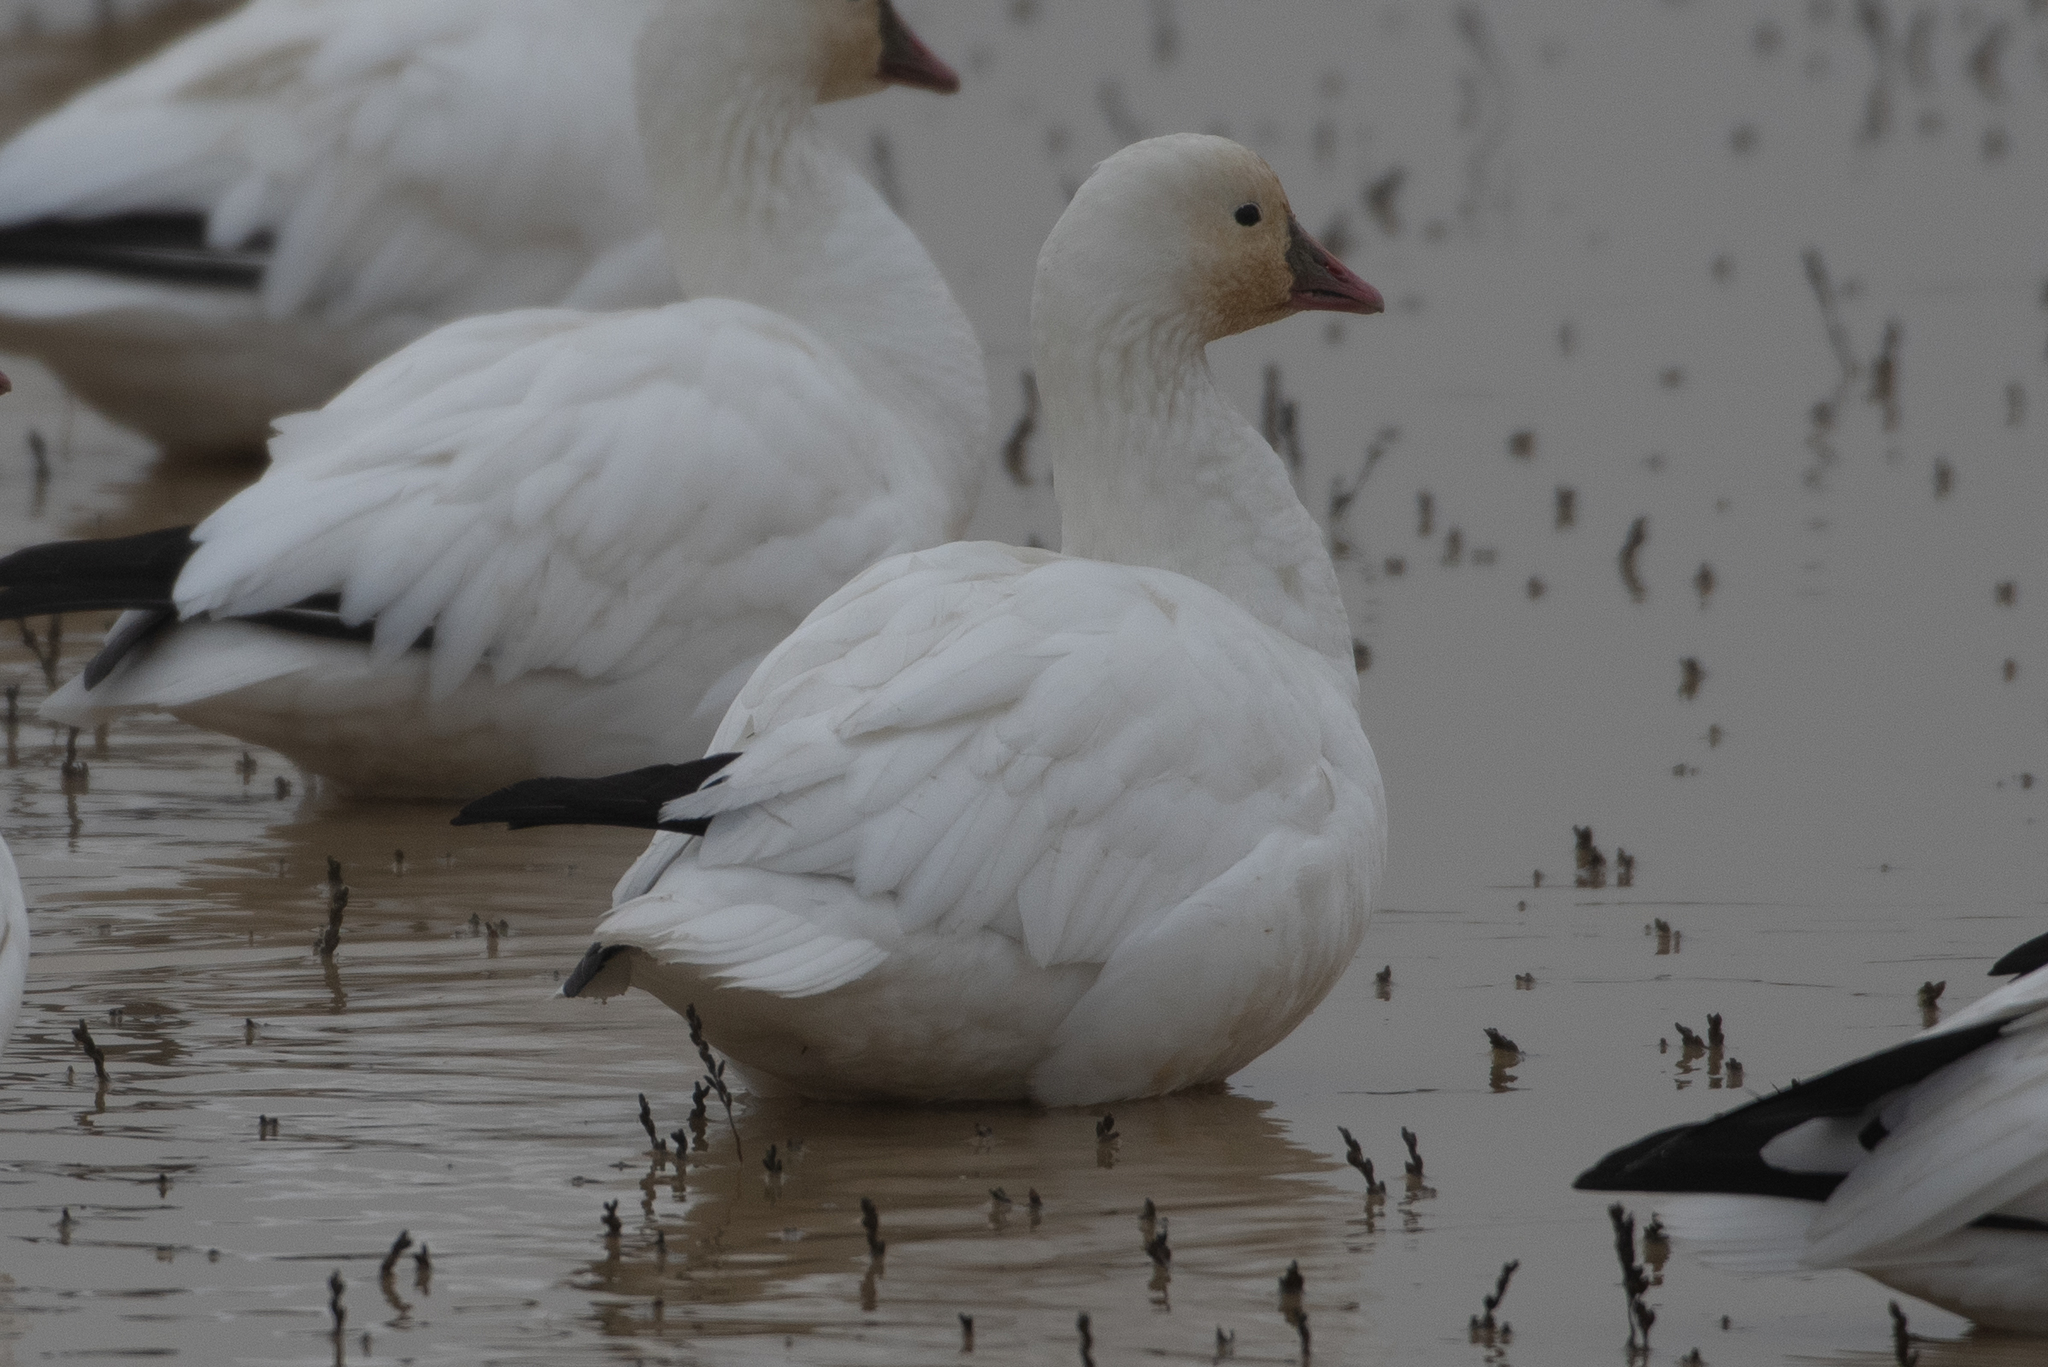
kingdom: Animalia
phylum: Chordata
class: Aves
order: Anseriformes
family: Anatidae
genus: Anser
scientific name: Anser rossii
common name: Ross's goose
